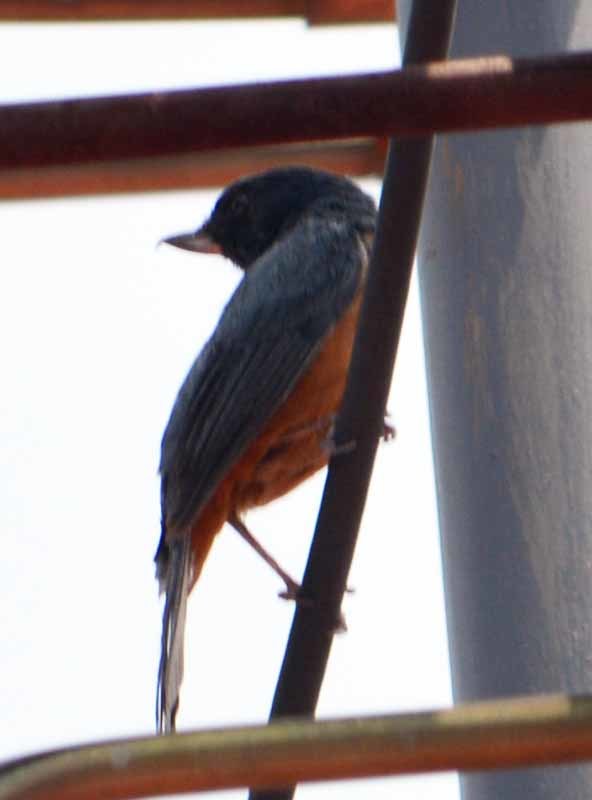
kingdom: Animalia
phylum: Chordata
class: Aves
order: Passeriformes
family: Thraupidae
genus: Diglossa
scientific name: Diglossa baritula
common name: Cinnamon-bellied flowerpiercer
